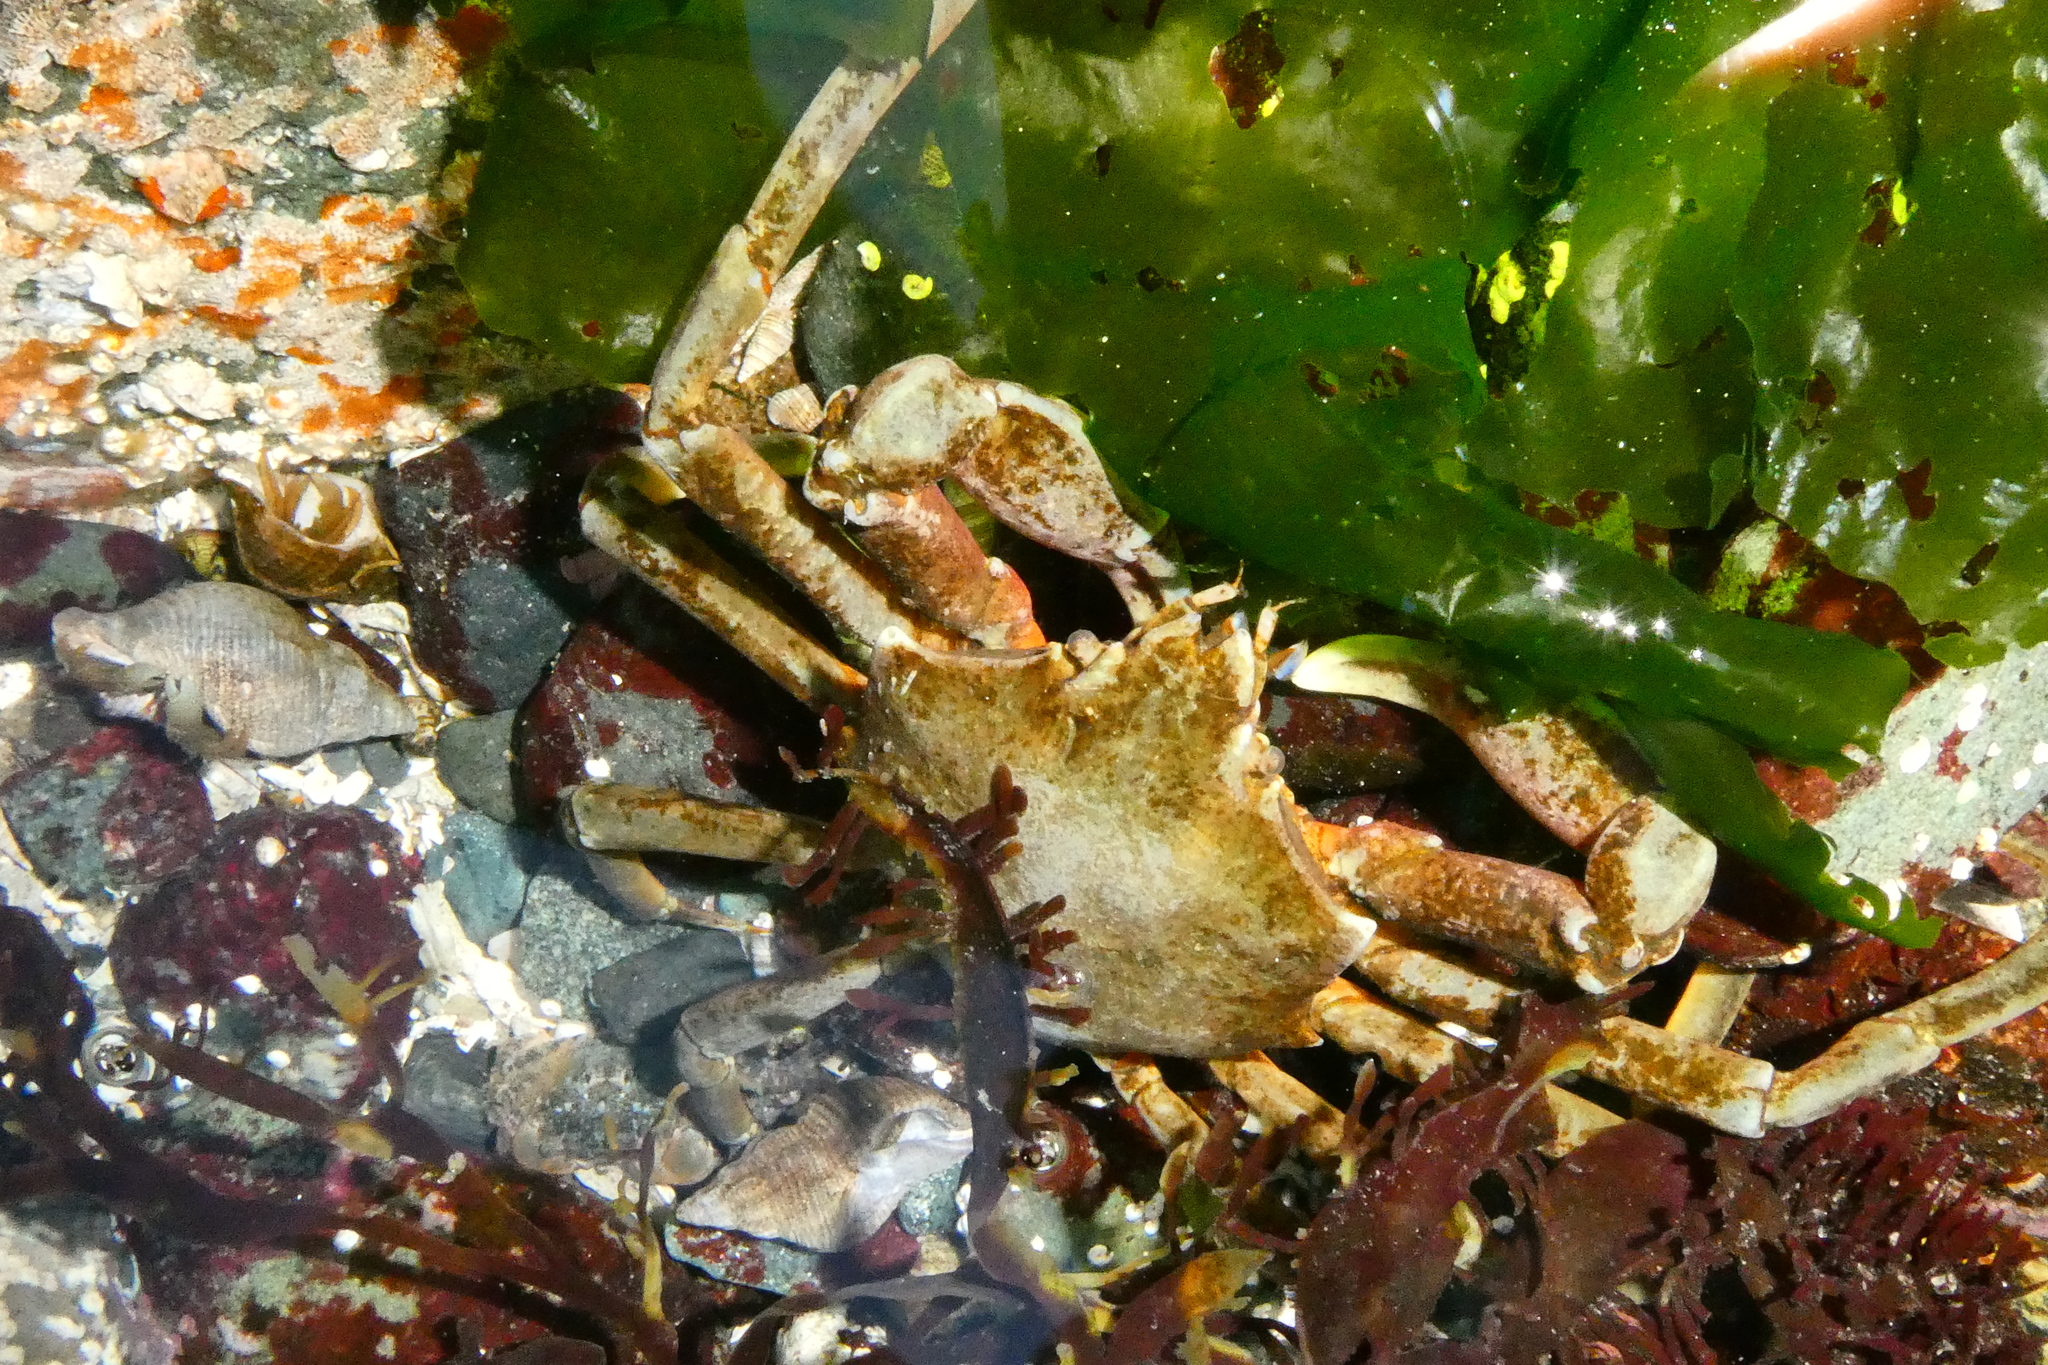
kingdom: Animalia
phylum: Arthropoda
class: Malacostraca
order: Decapoda
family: Epialtidae
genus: Pugettia
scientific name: Pugettia producta
